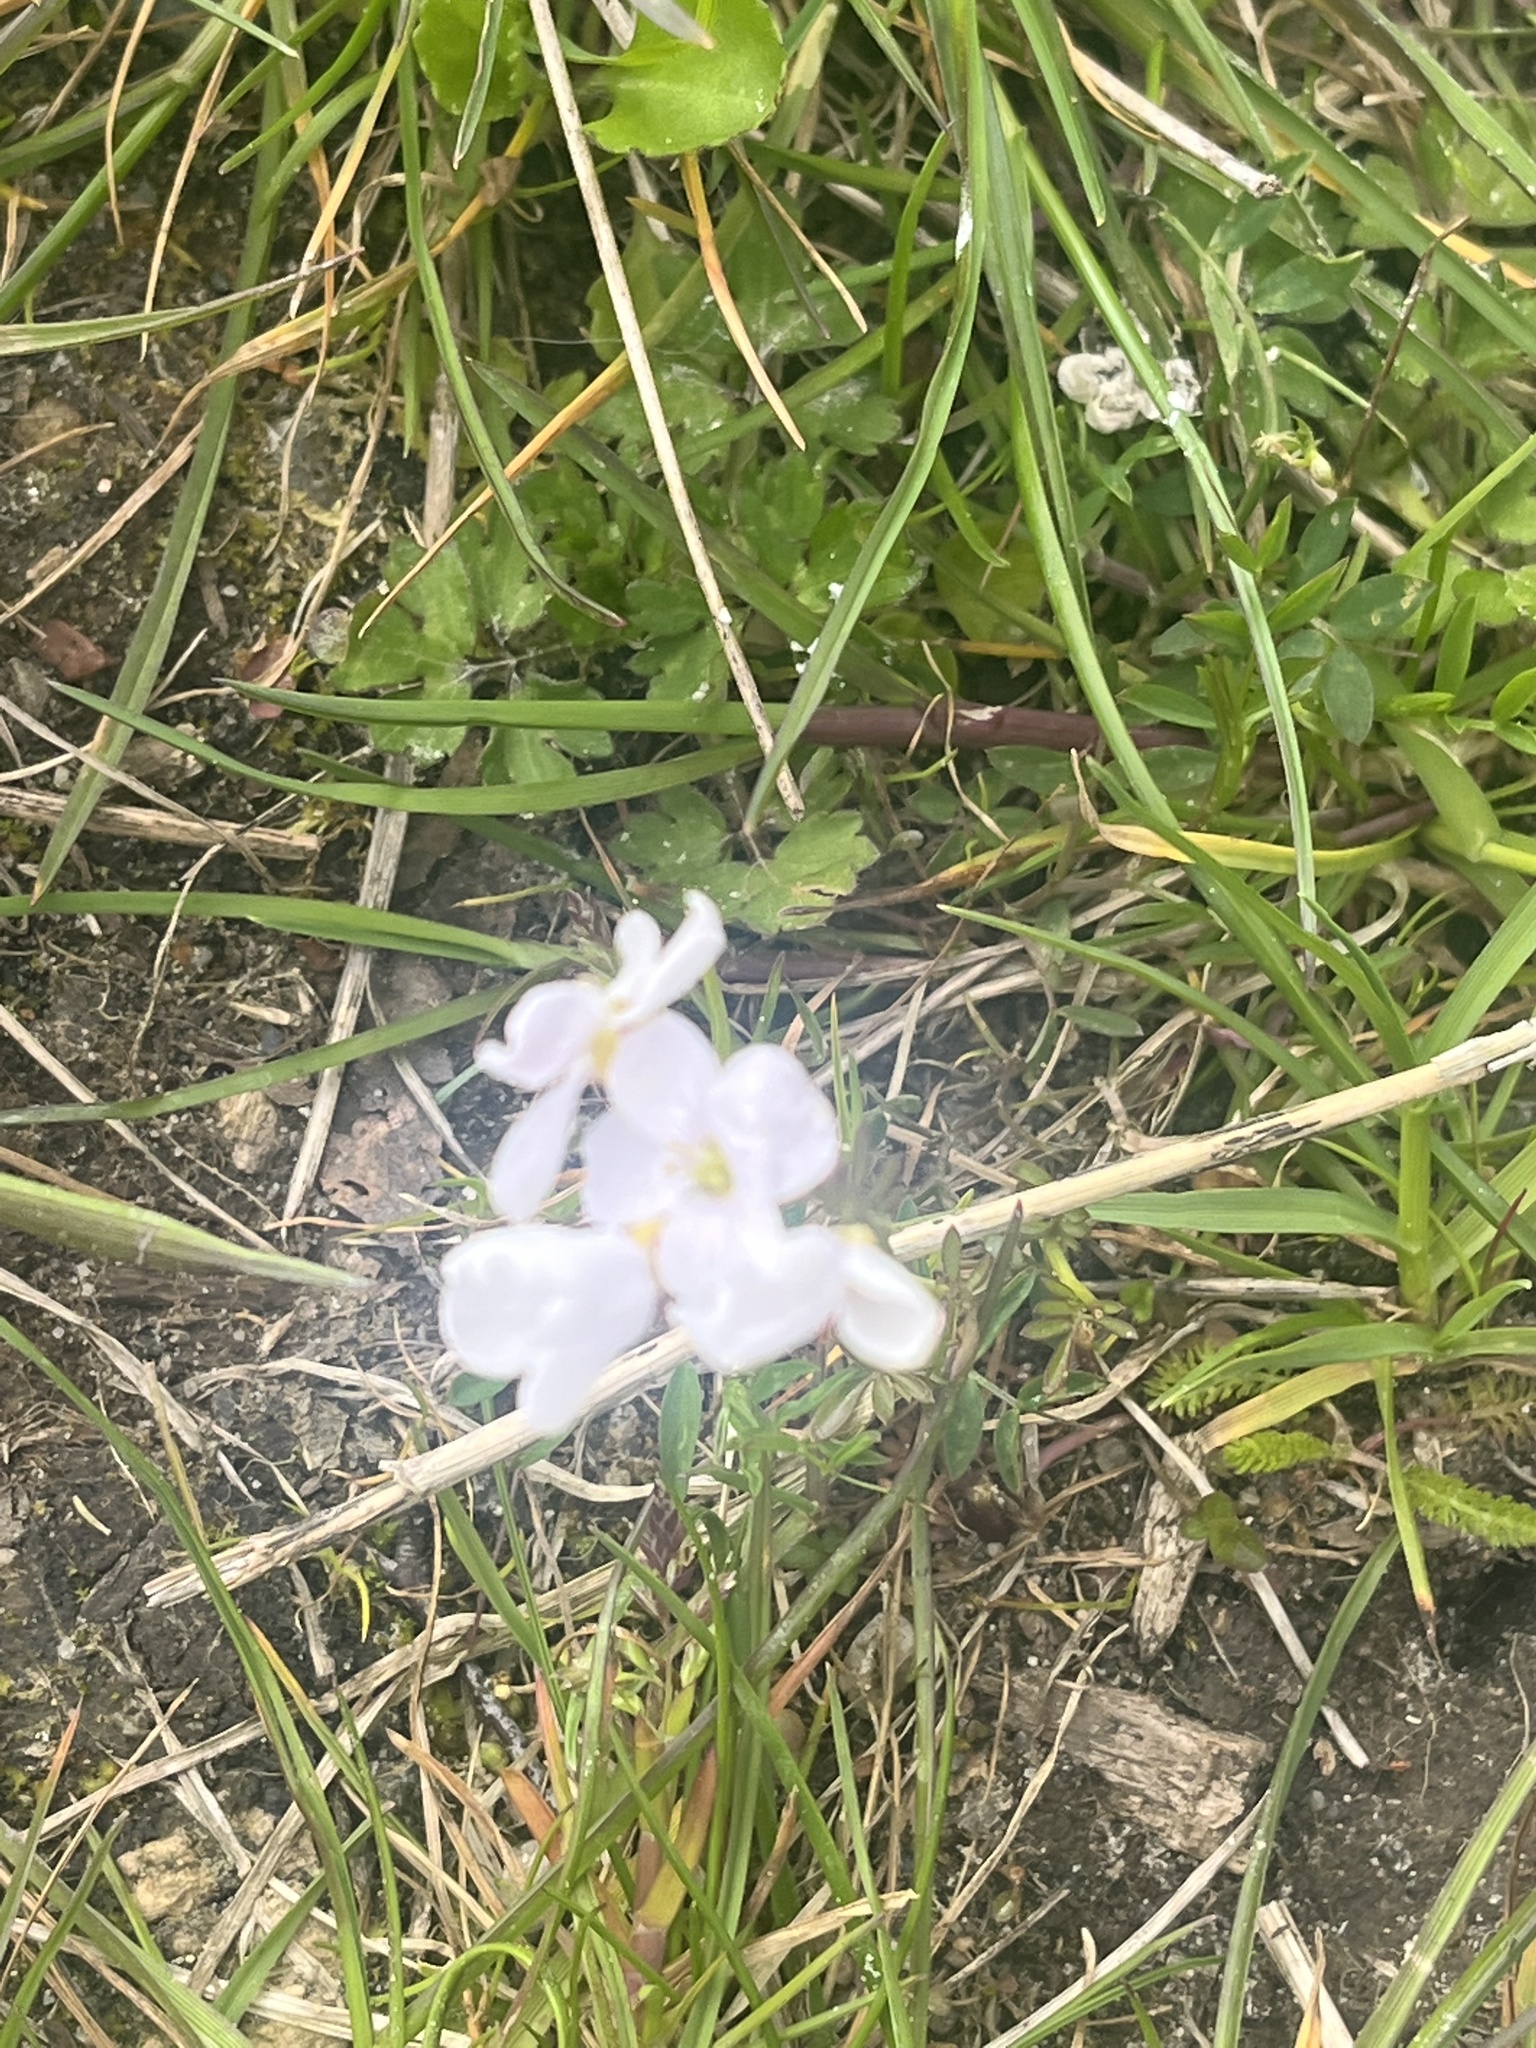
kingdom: Plantae
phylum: Tracheophyta
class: Magnoliopsida
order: Brassicales
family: Brassicaceae
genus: Cardamine
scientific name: Cardamine pratensis
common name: Cuckoo flower
